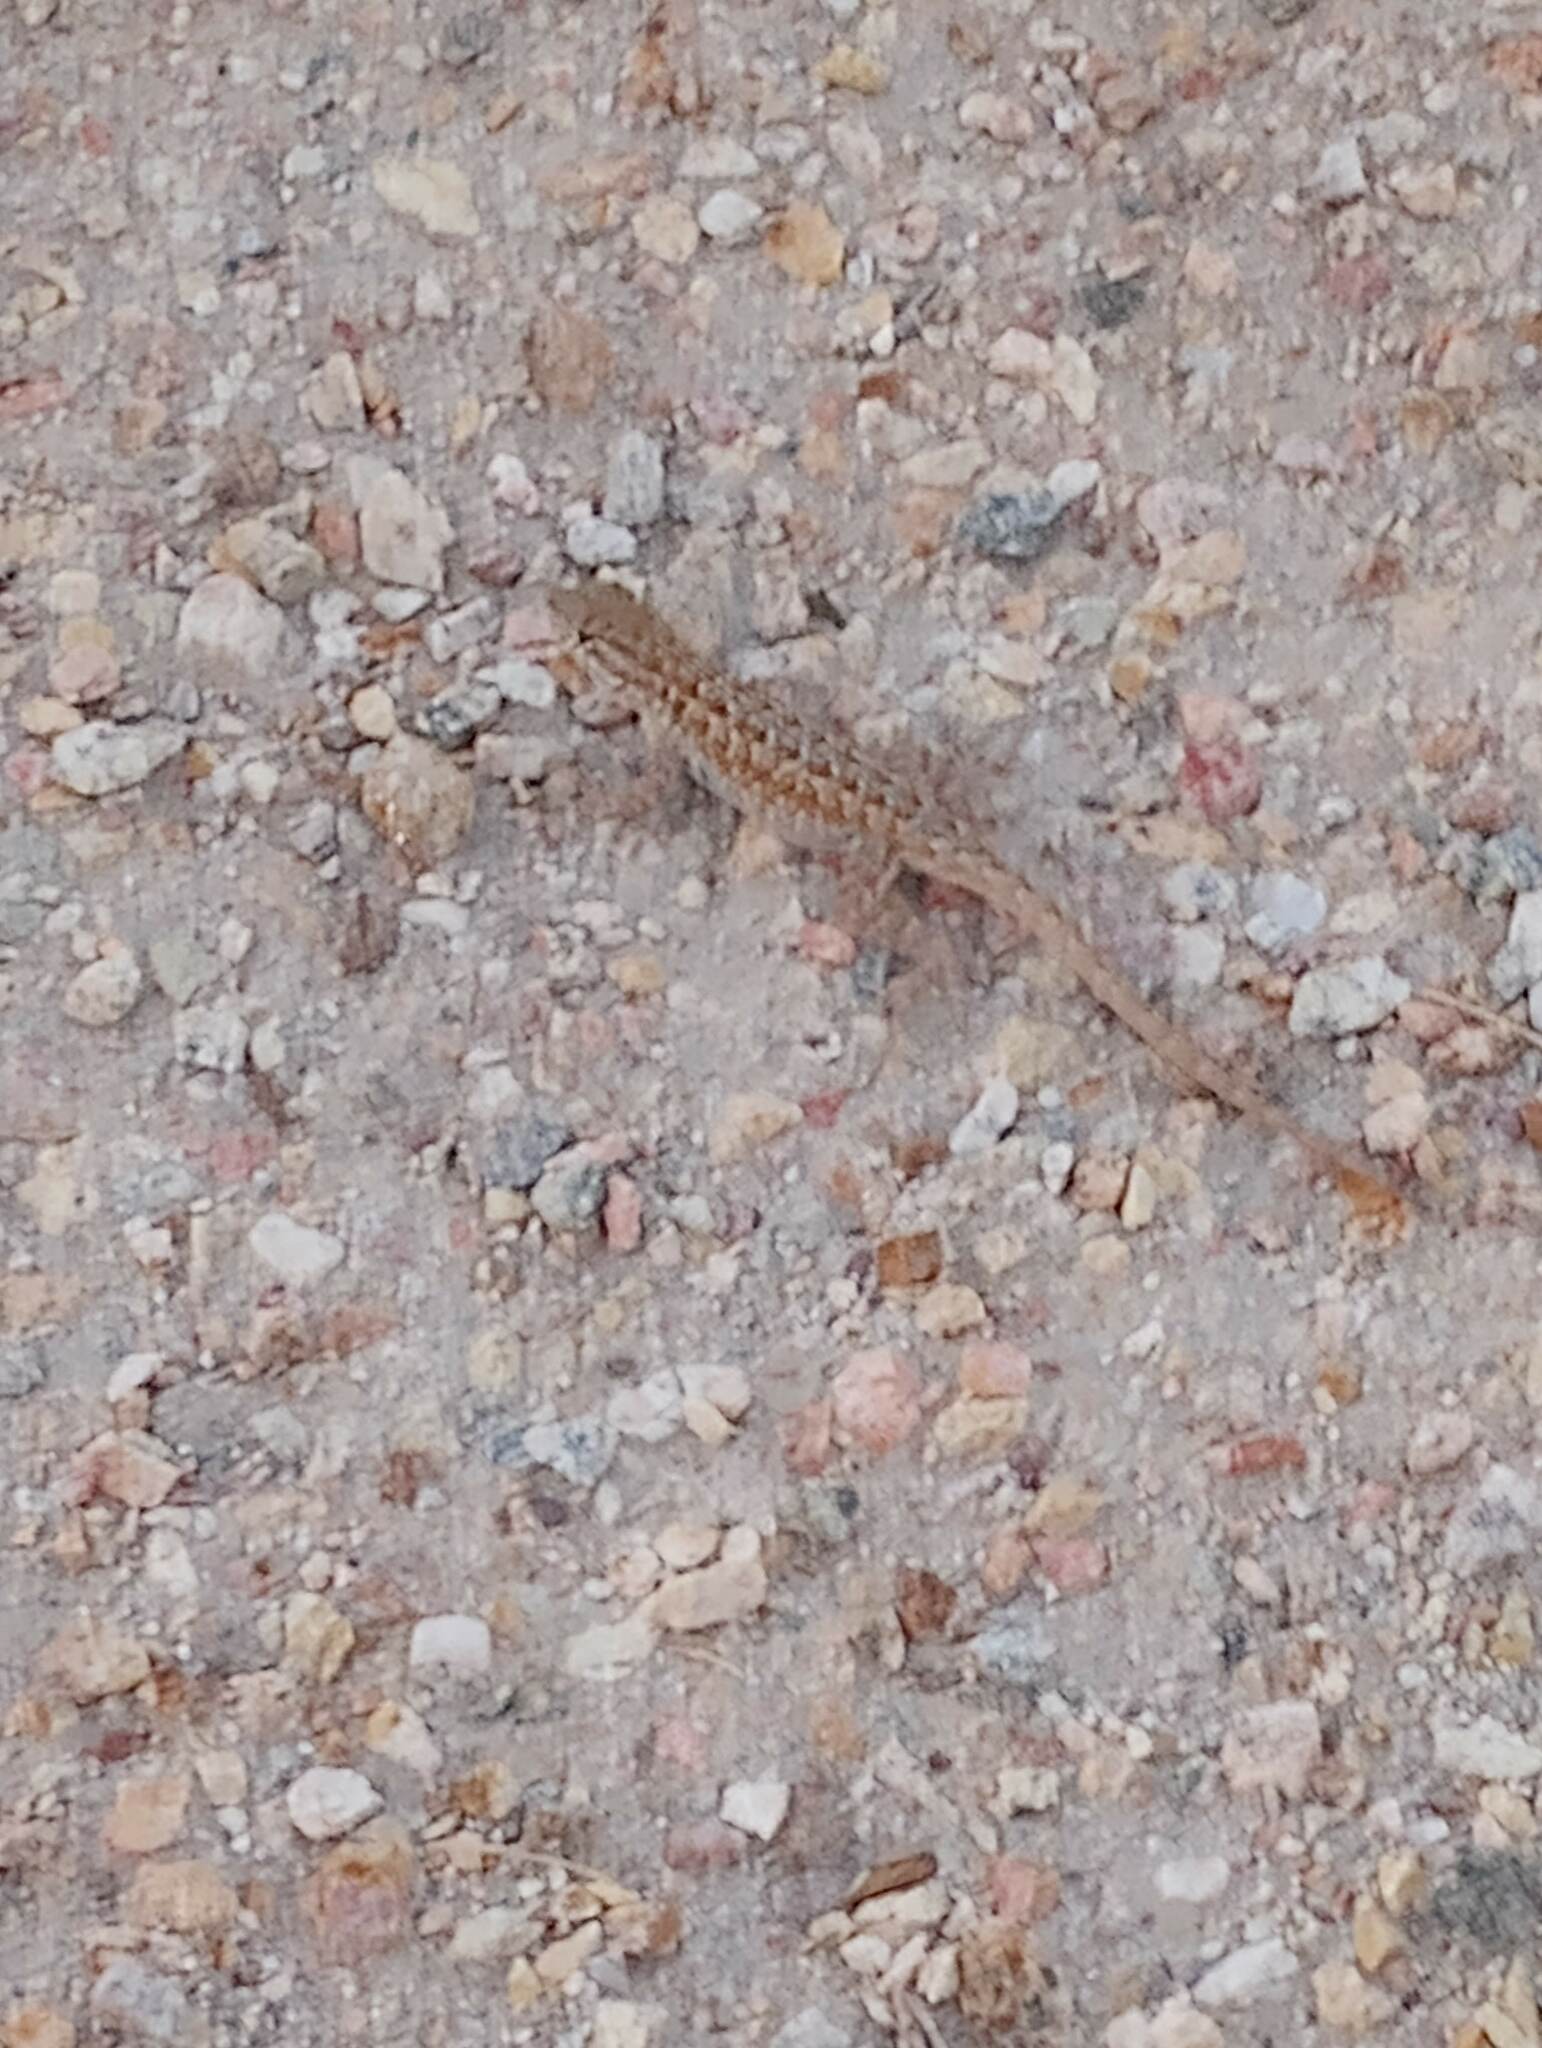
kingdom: Animalia
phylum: Chordata
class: Squamata
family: Phrynosomatidae
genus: Uta
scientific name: Uta stansburiana
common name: Side-blotched lizard
